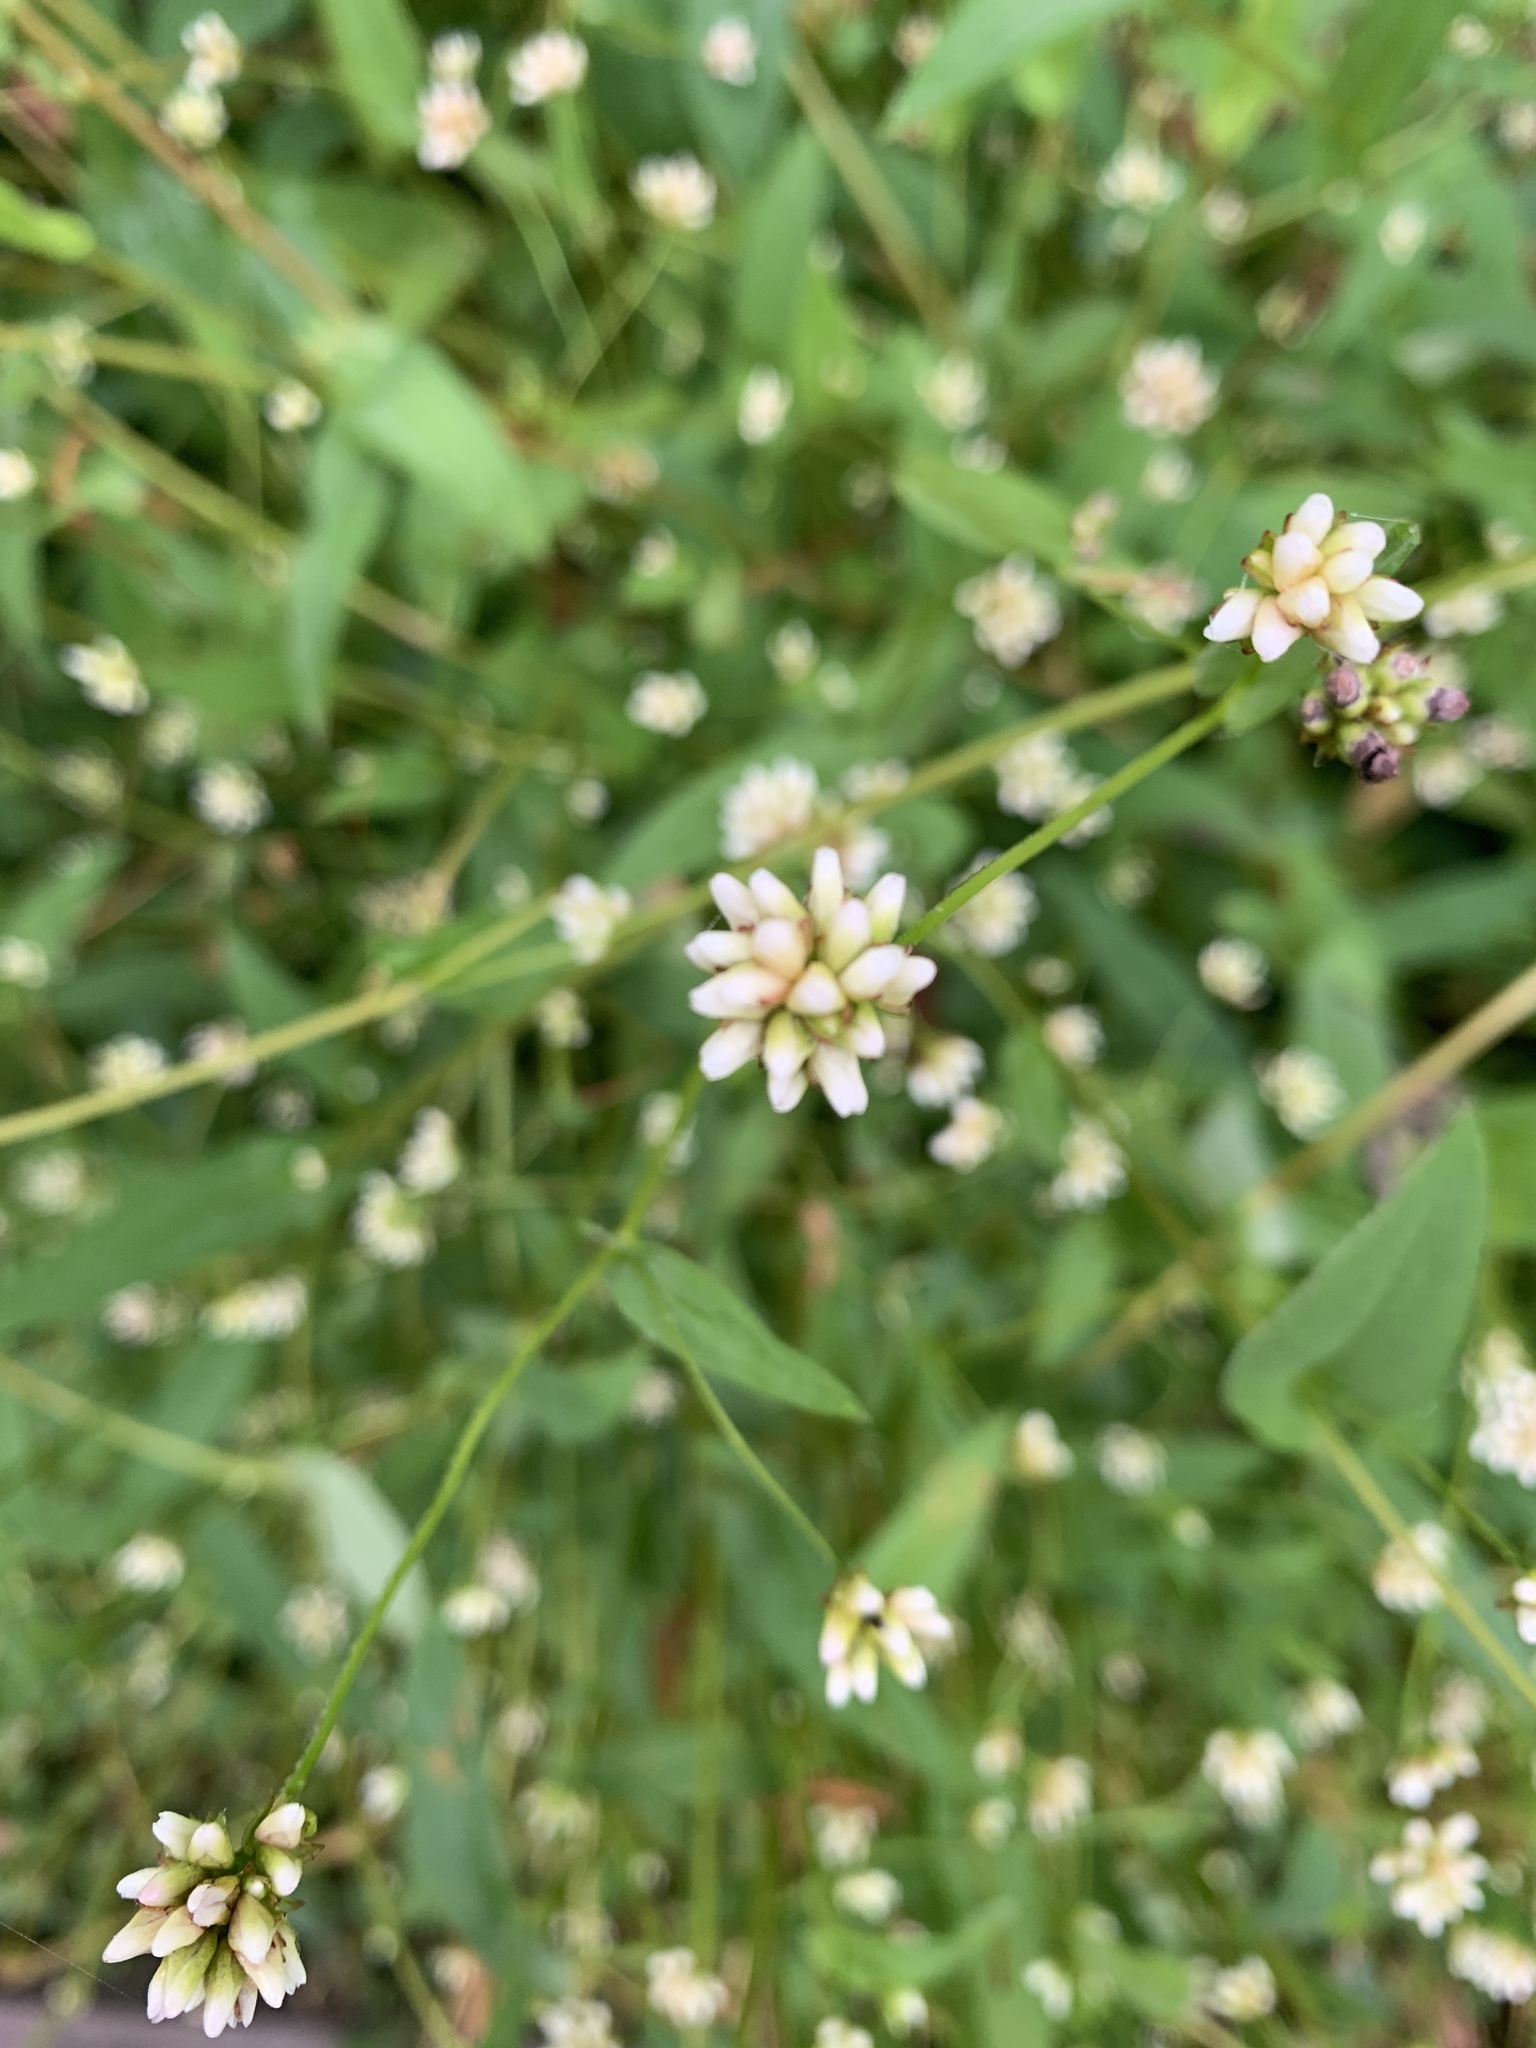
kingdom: Plantae
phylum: Tracheophyta
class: Magnoliopsida
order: Caryophyllales
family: Polygonaceae
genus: Persicaria
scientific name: Persicaria sagittata
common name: American tearthumb
